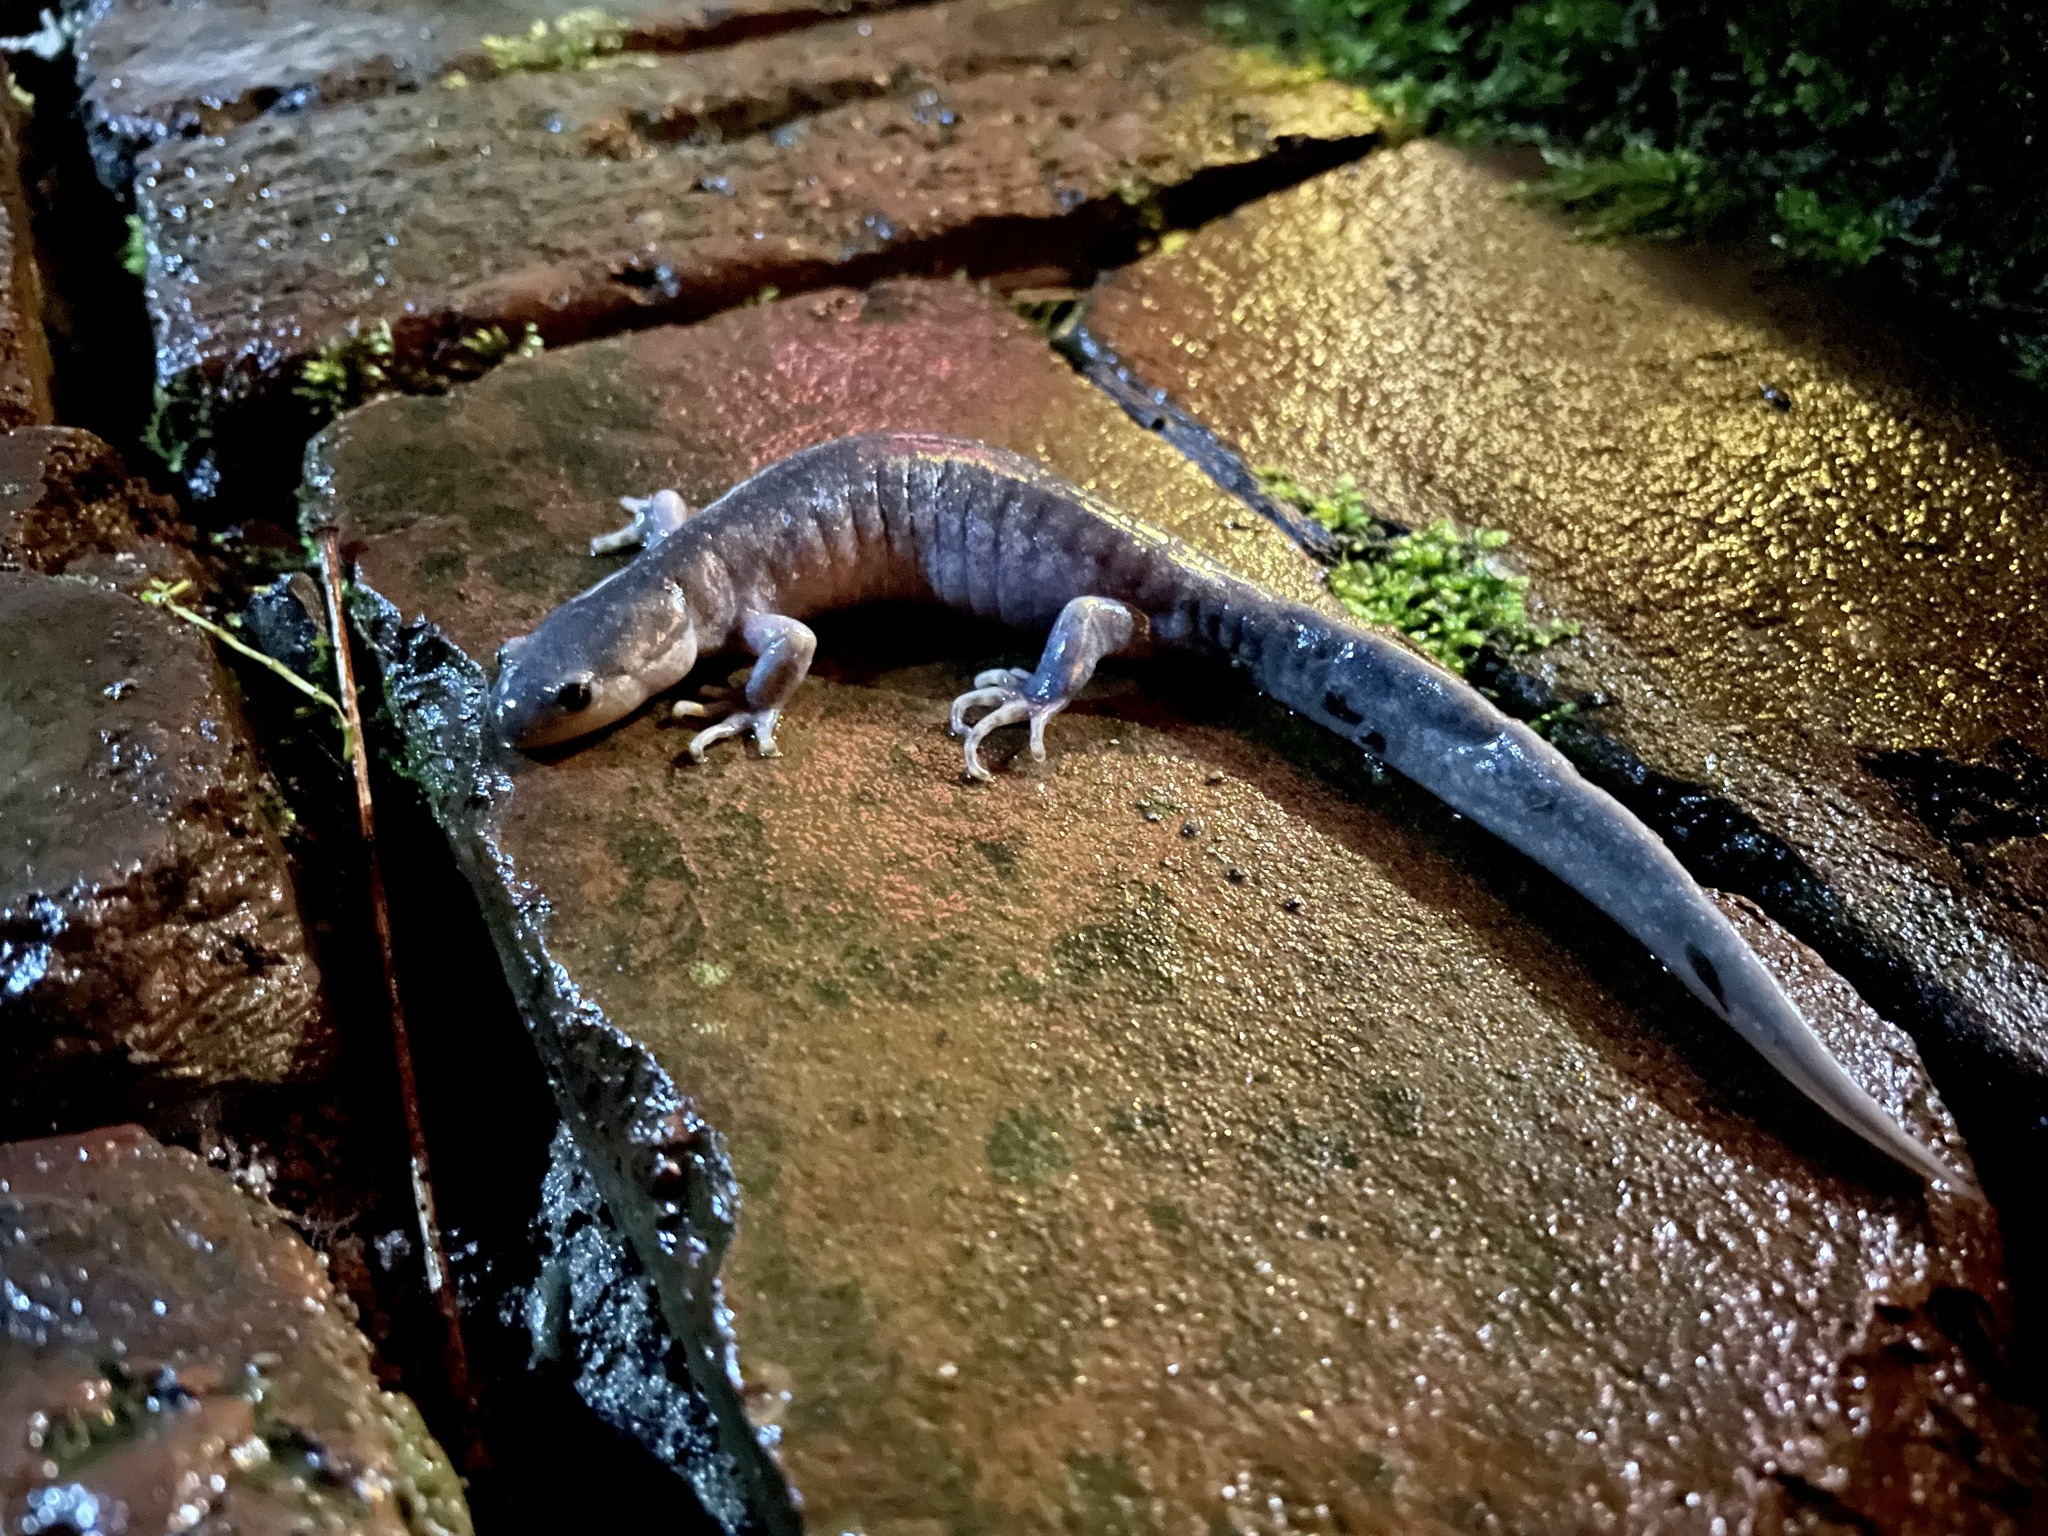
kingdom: Animalia
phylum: Chordata
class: Amphibia
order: Caudata
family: Ambystomatidae
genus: Ambystoma
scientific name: Ambystoma jeffersonianum
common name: Jefferson salamander
